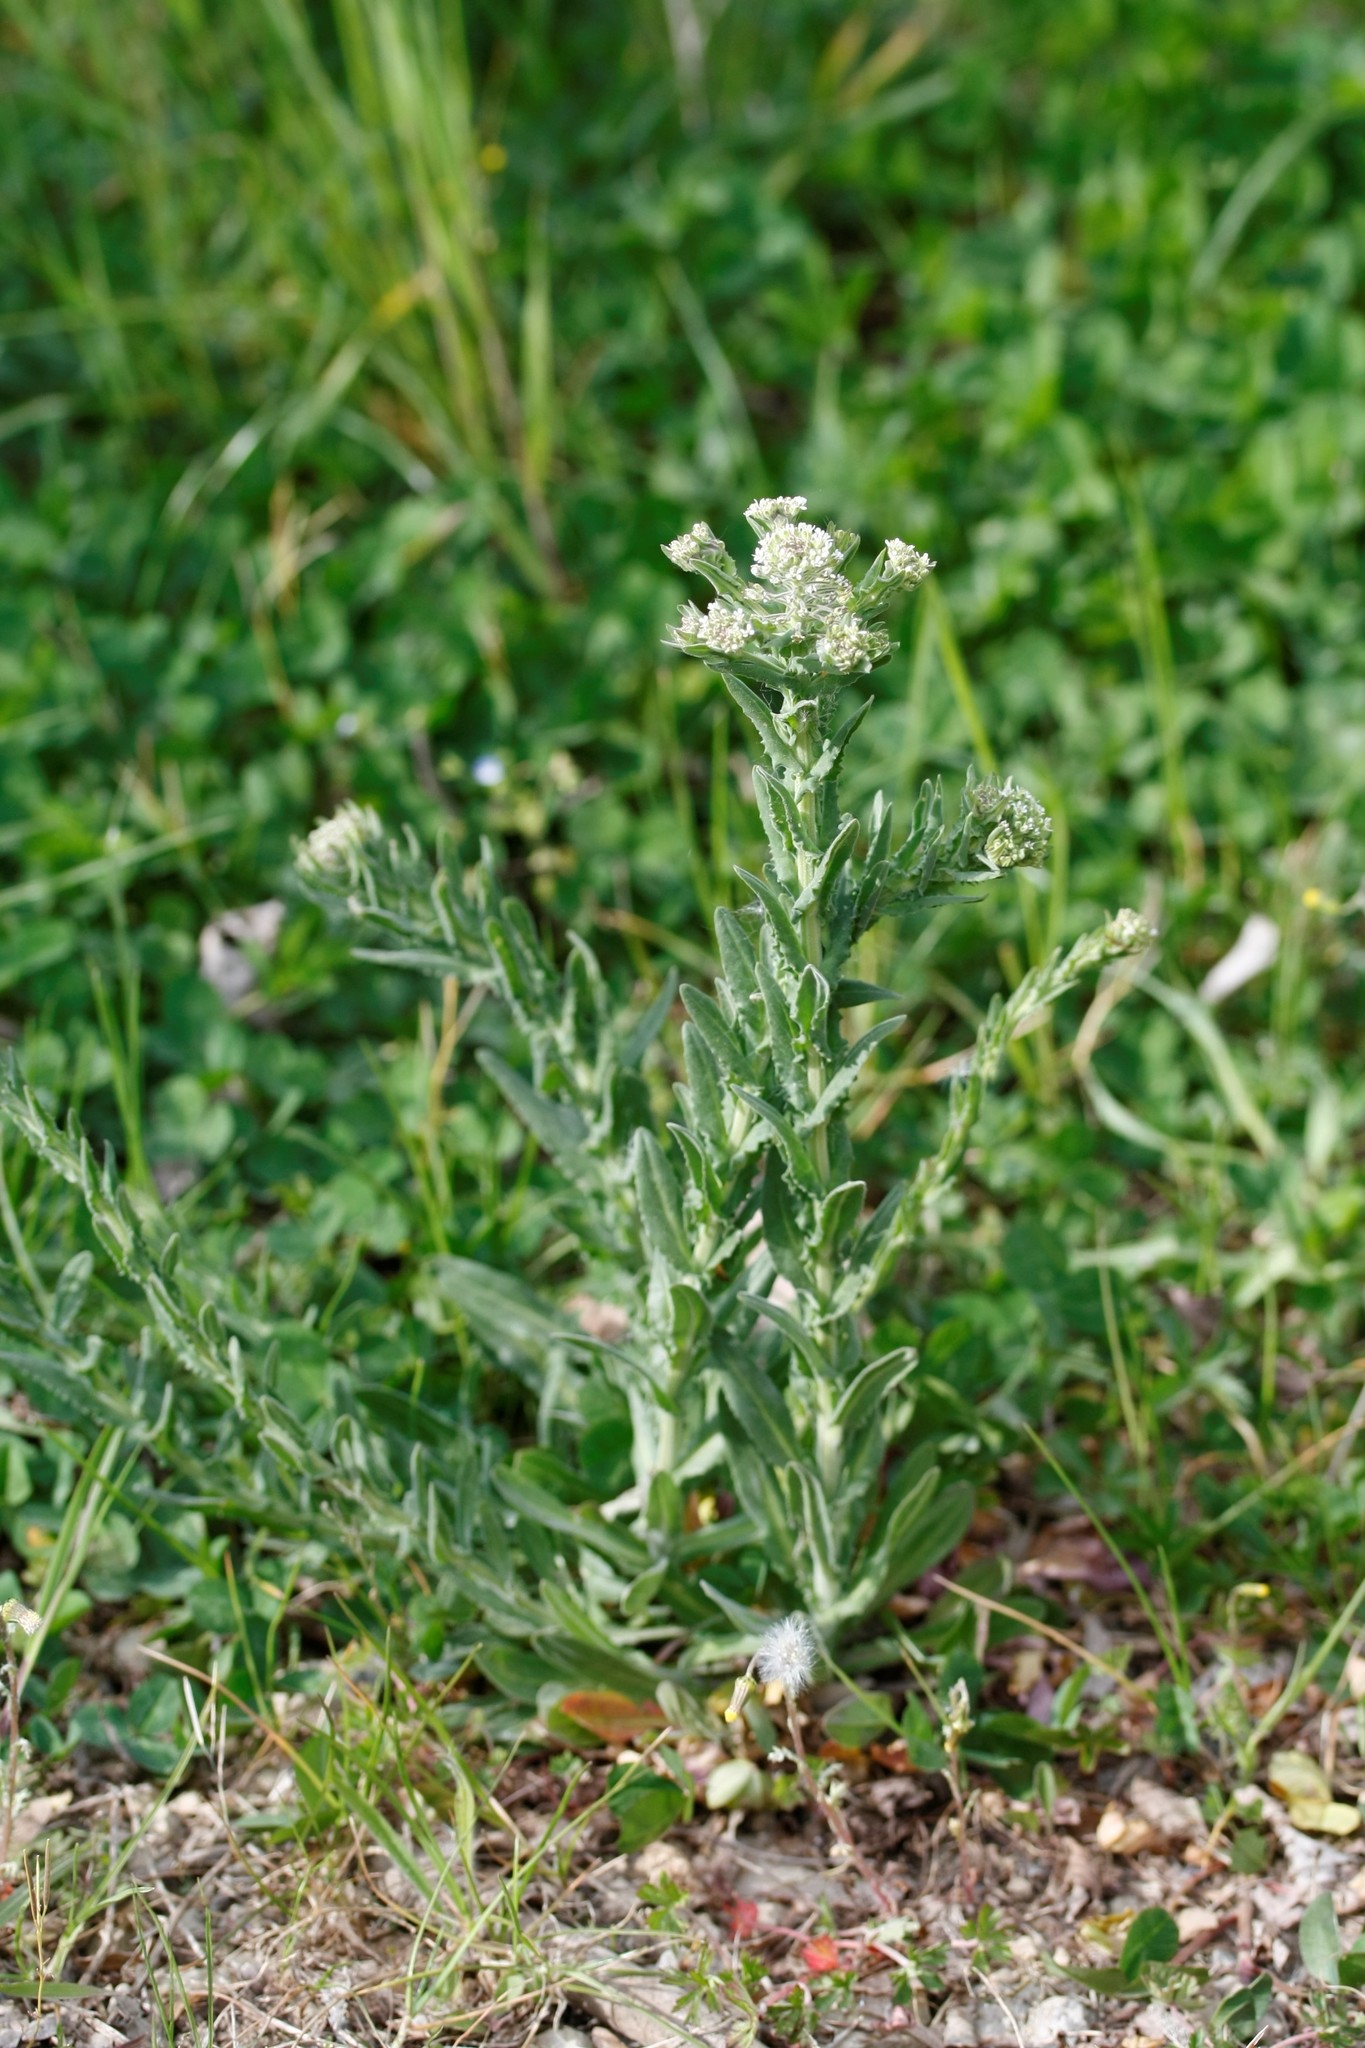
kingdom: Plantae
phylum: Tracheophyta
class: Magnoliopsida
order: Brassicales
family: Brassicaceae
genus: Lepidium
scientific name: Lepidium campestre
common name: Field pepperwort
